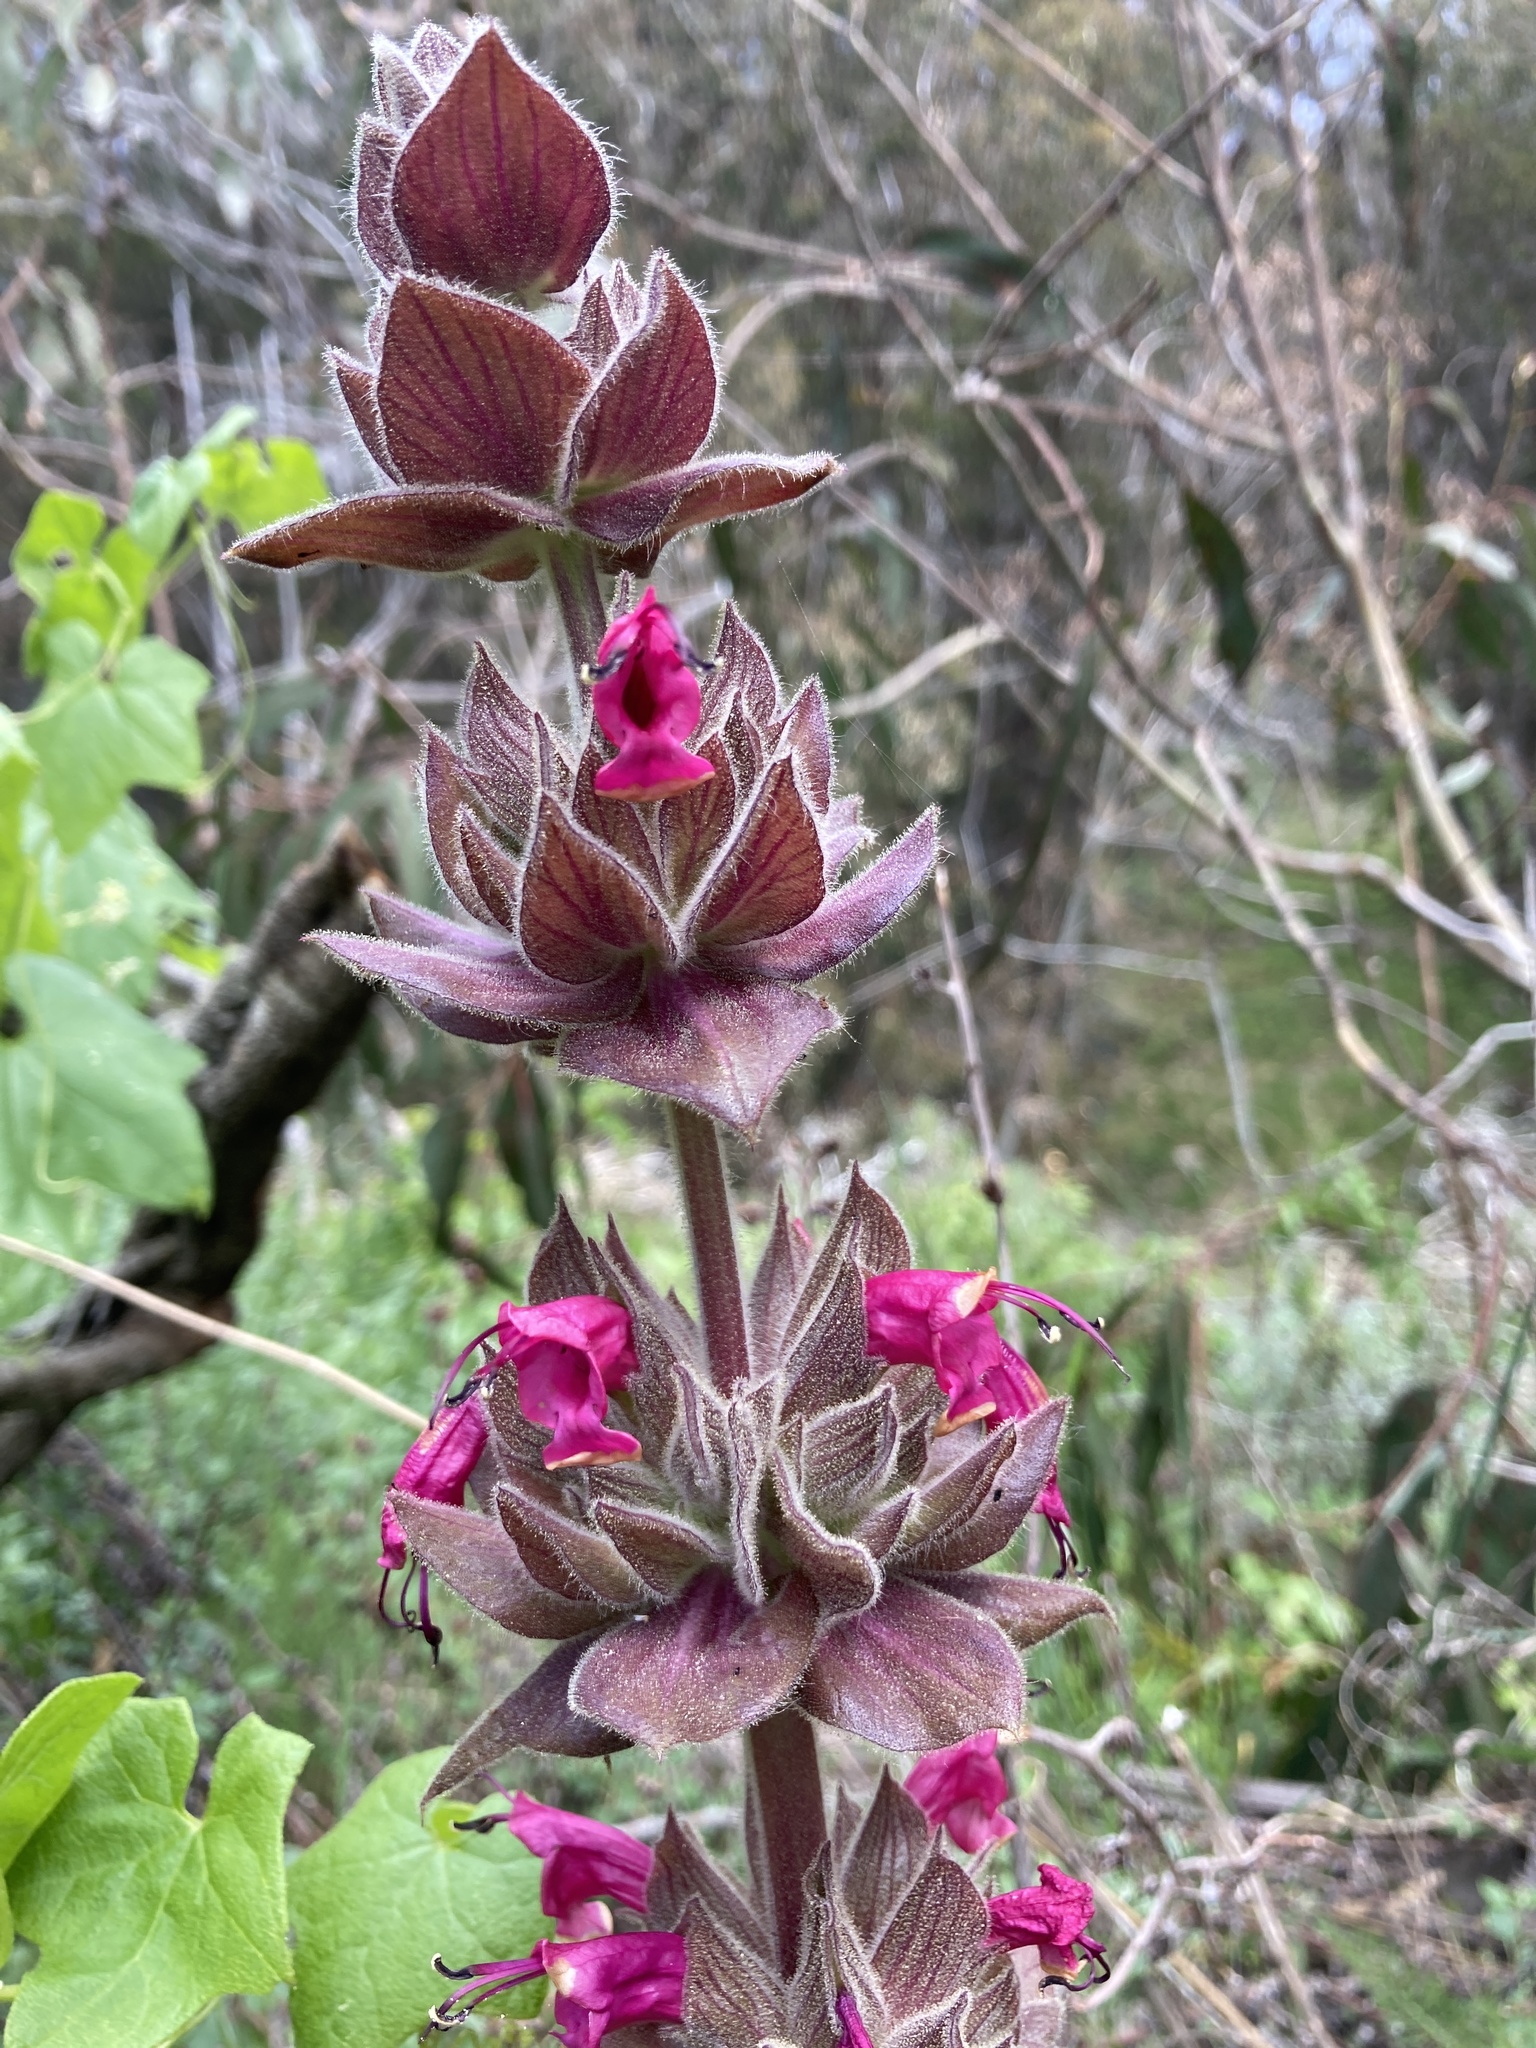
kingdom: Plantae
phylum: Tracheophyta
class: Magnoliopsida
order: Lamiales
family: Lamiaceae
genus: Salvia
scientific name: Salvia spathacea
